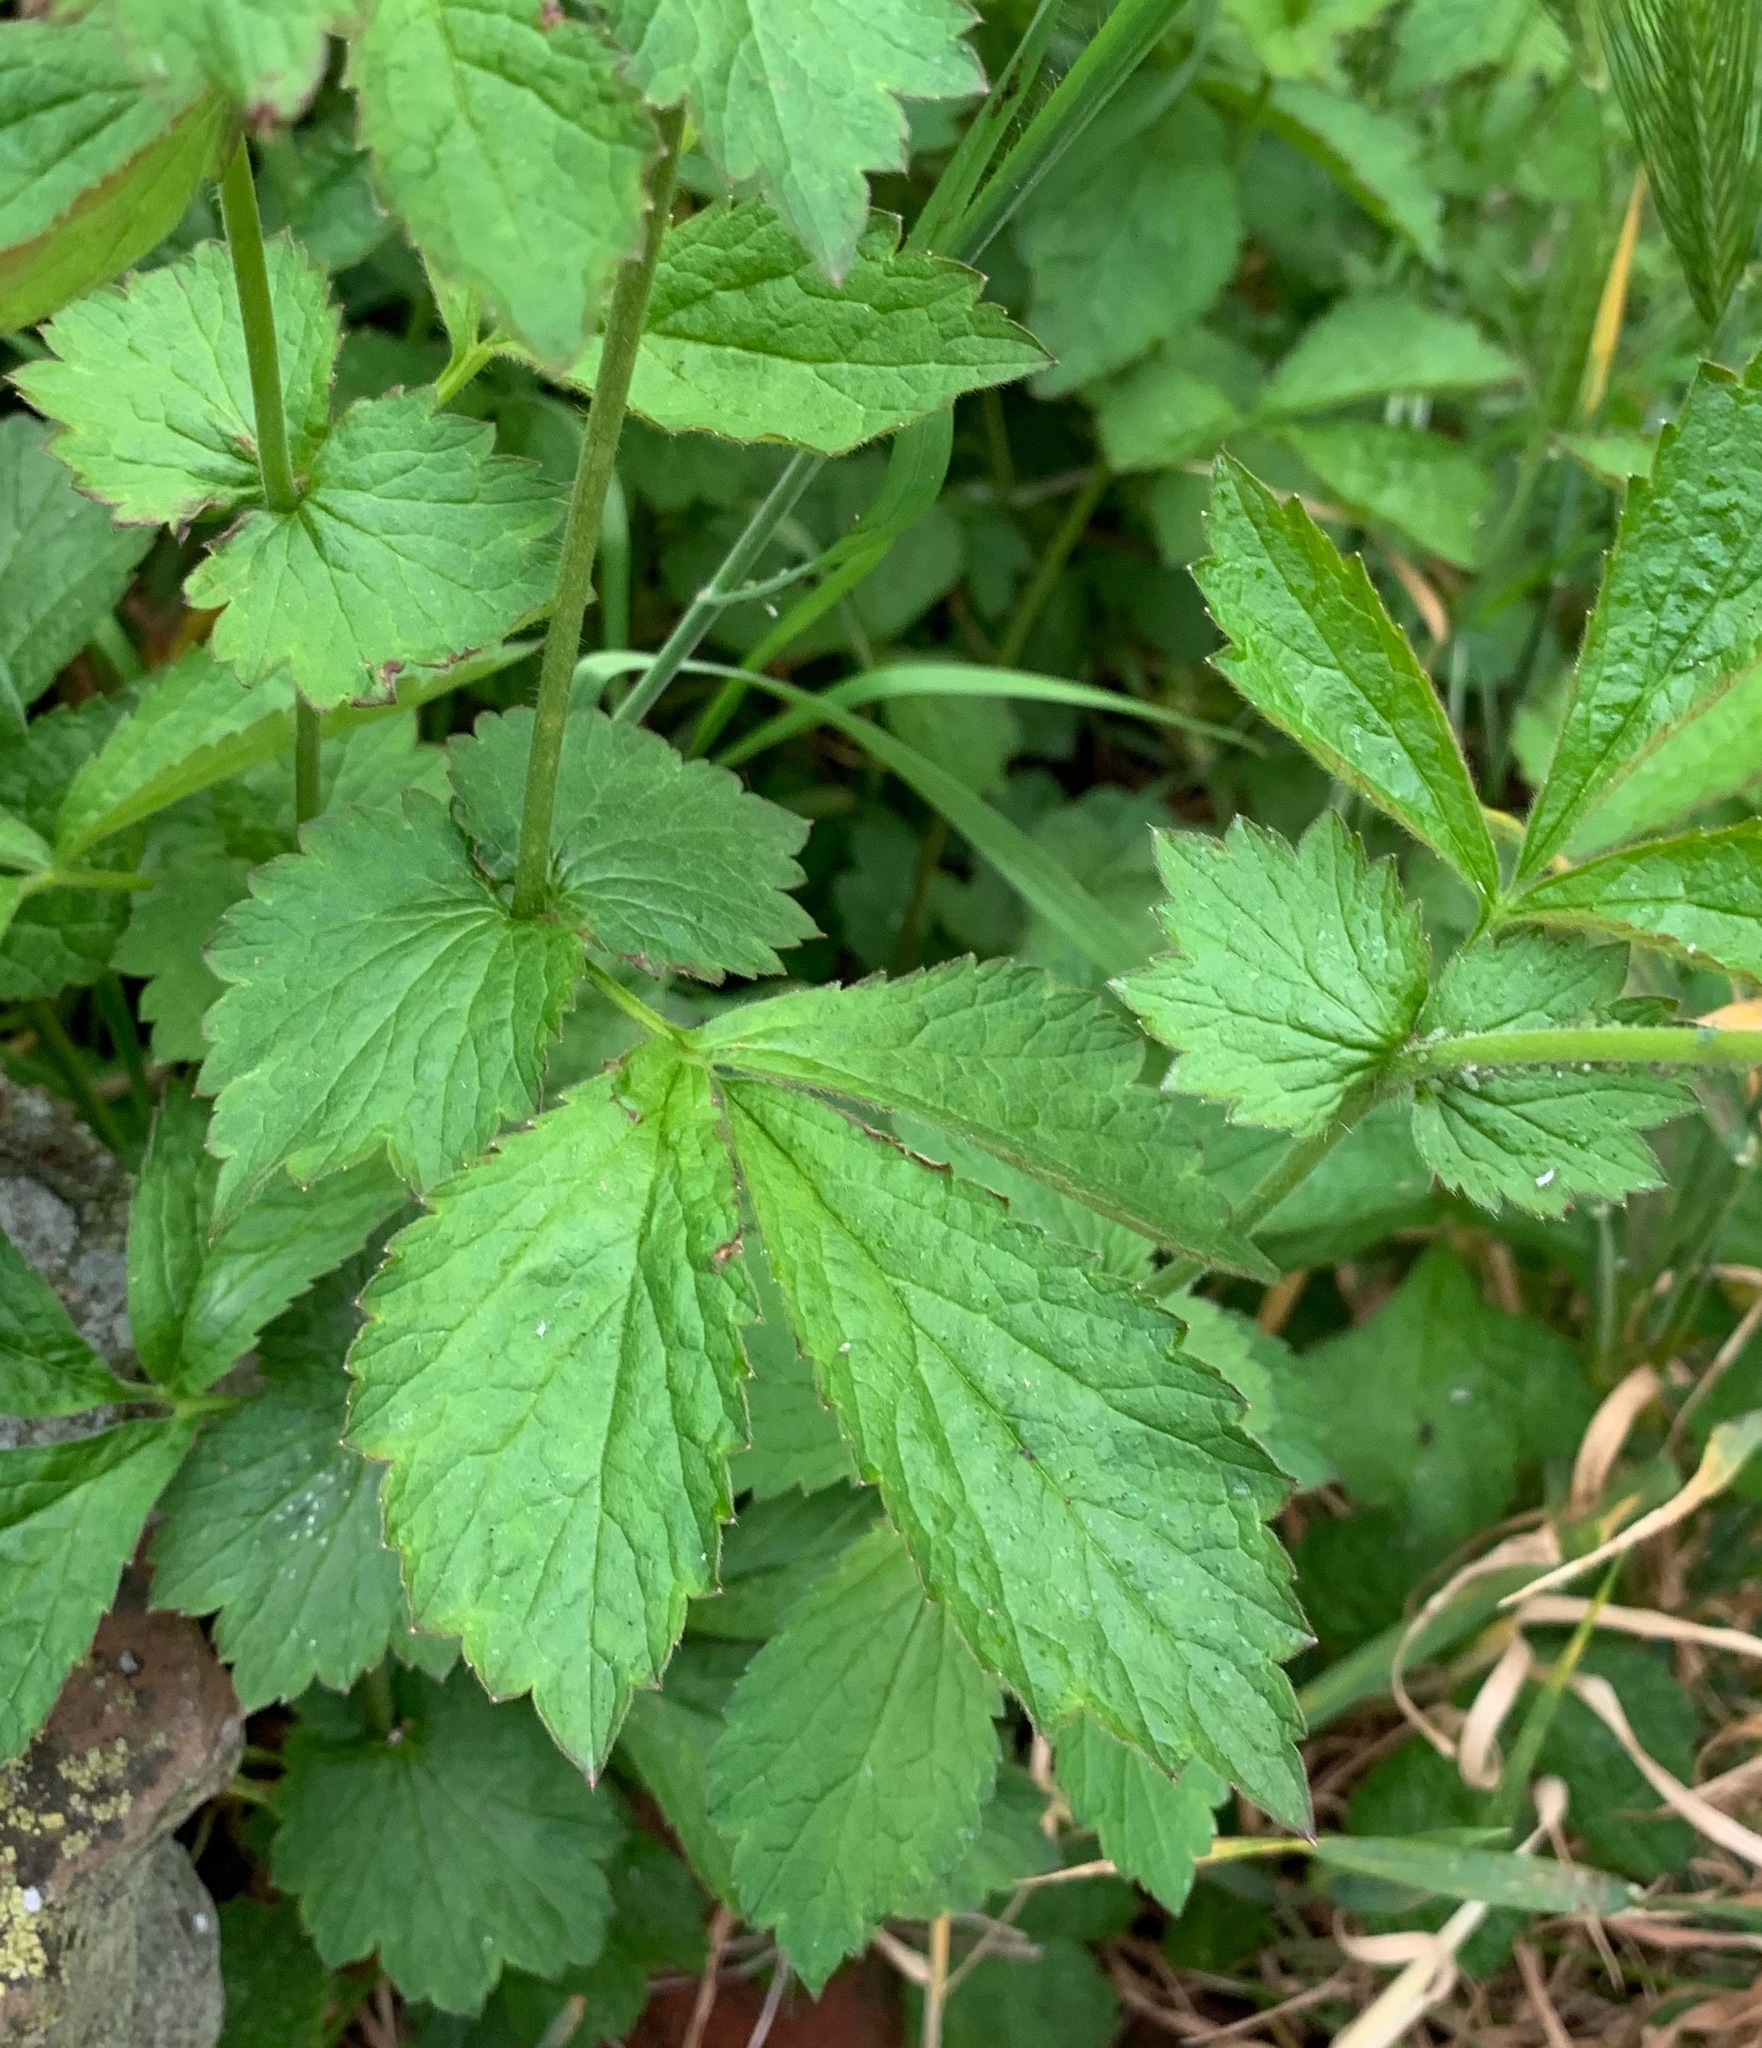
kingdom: Plantae
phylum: Tracheophyta
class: Magnoliopsida
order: Rosales
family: Rosaceae
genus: Geum
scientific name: Geum urbanum
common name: Wood avens
